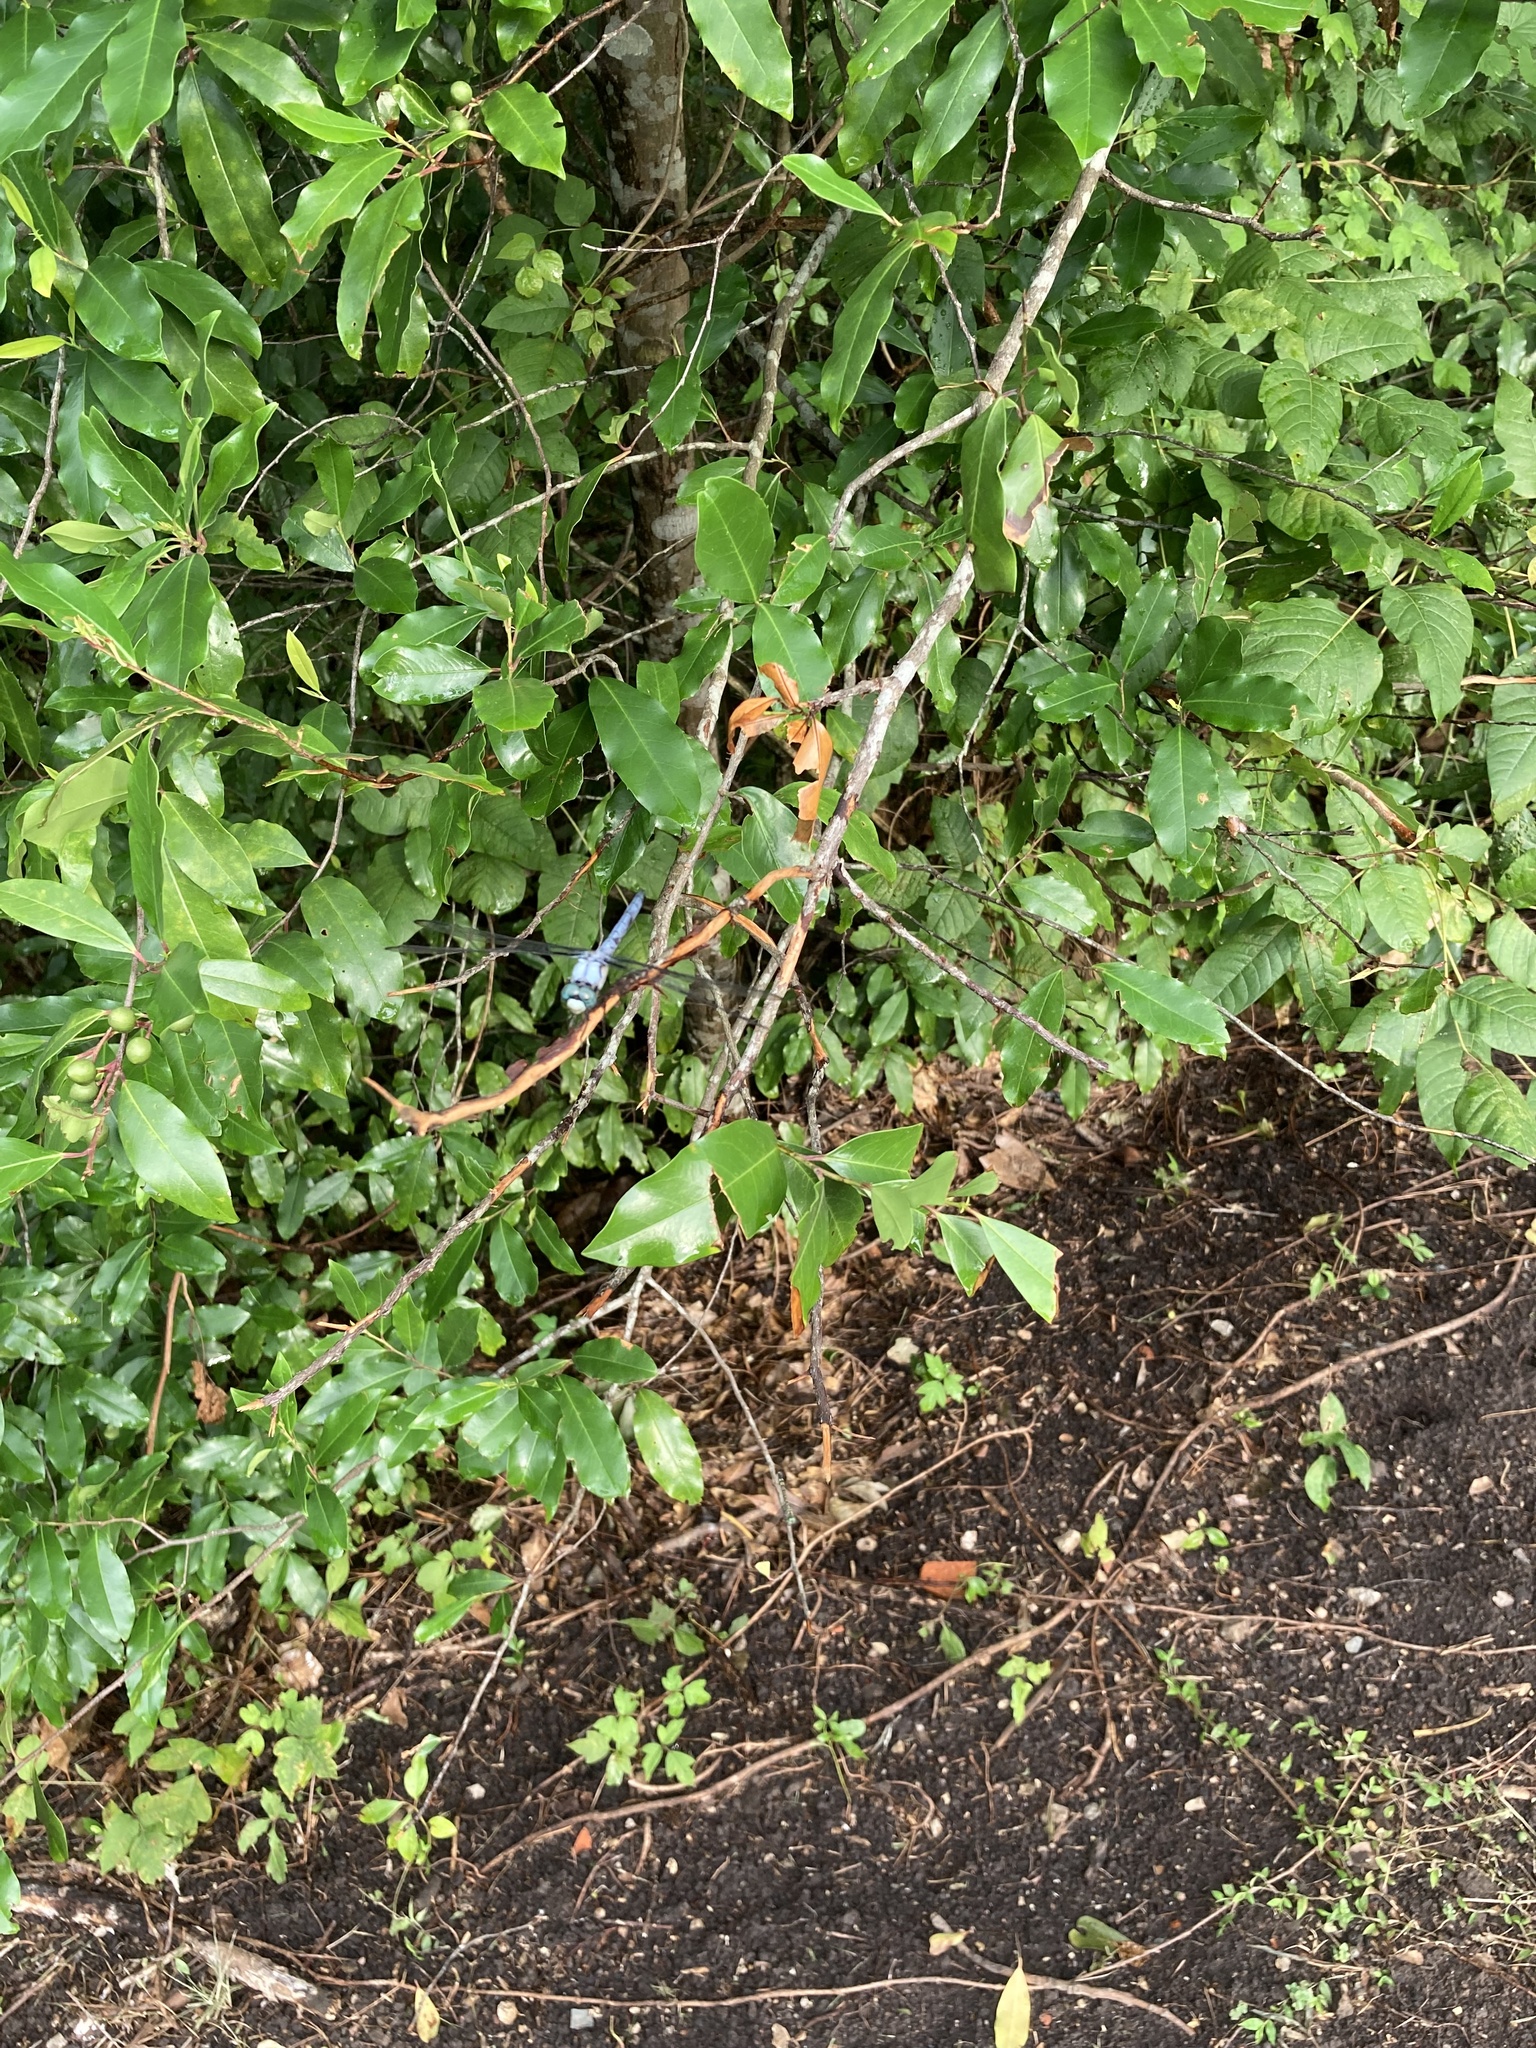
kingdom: Animalia
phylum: Arthropoda
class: Insecta
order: Odonata
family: Libellulidae
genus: Libellula
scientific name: Libellula vibrans
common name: Great blue skimmer
